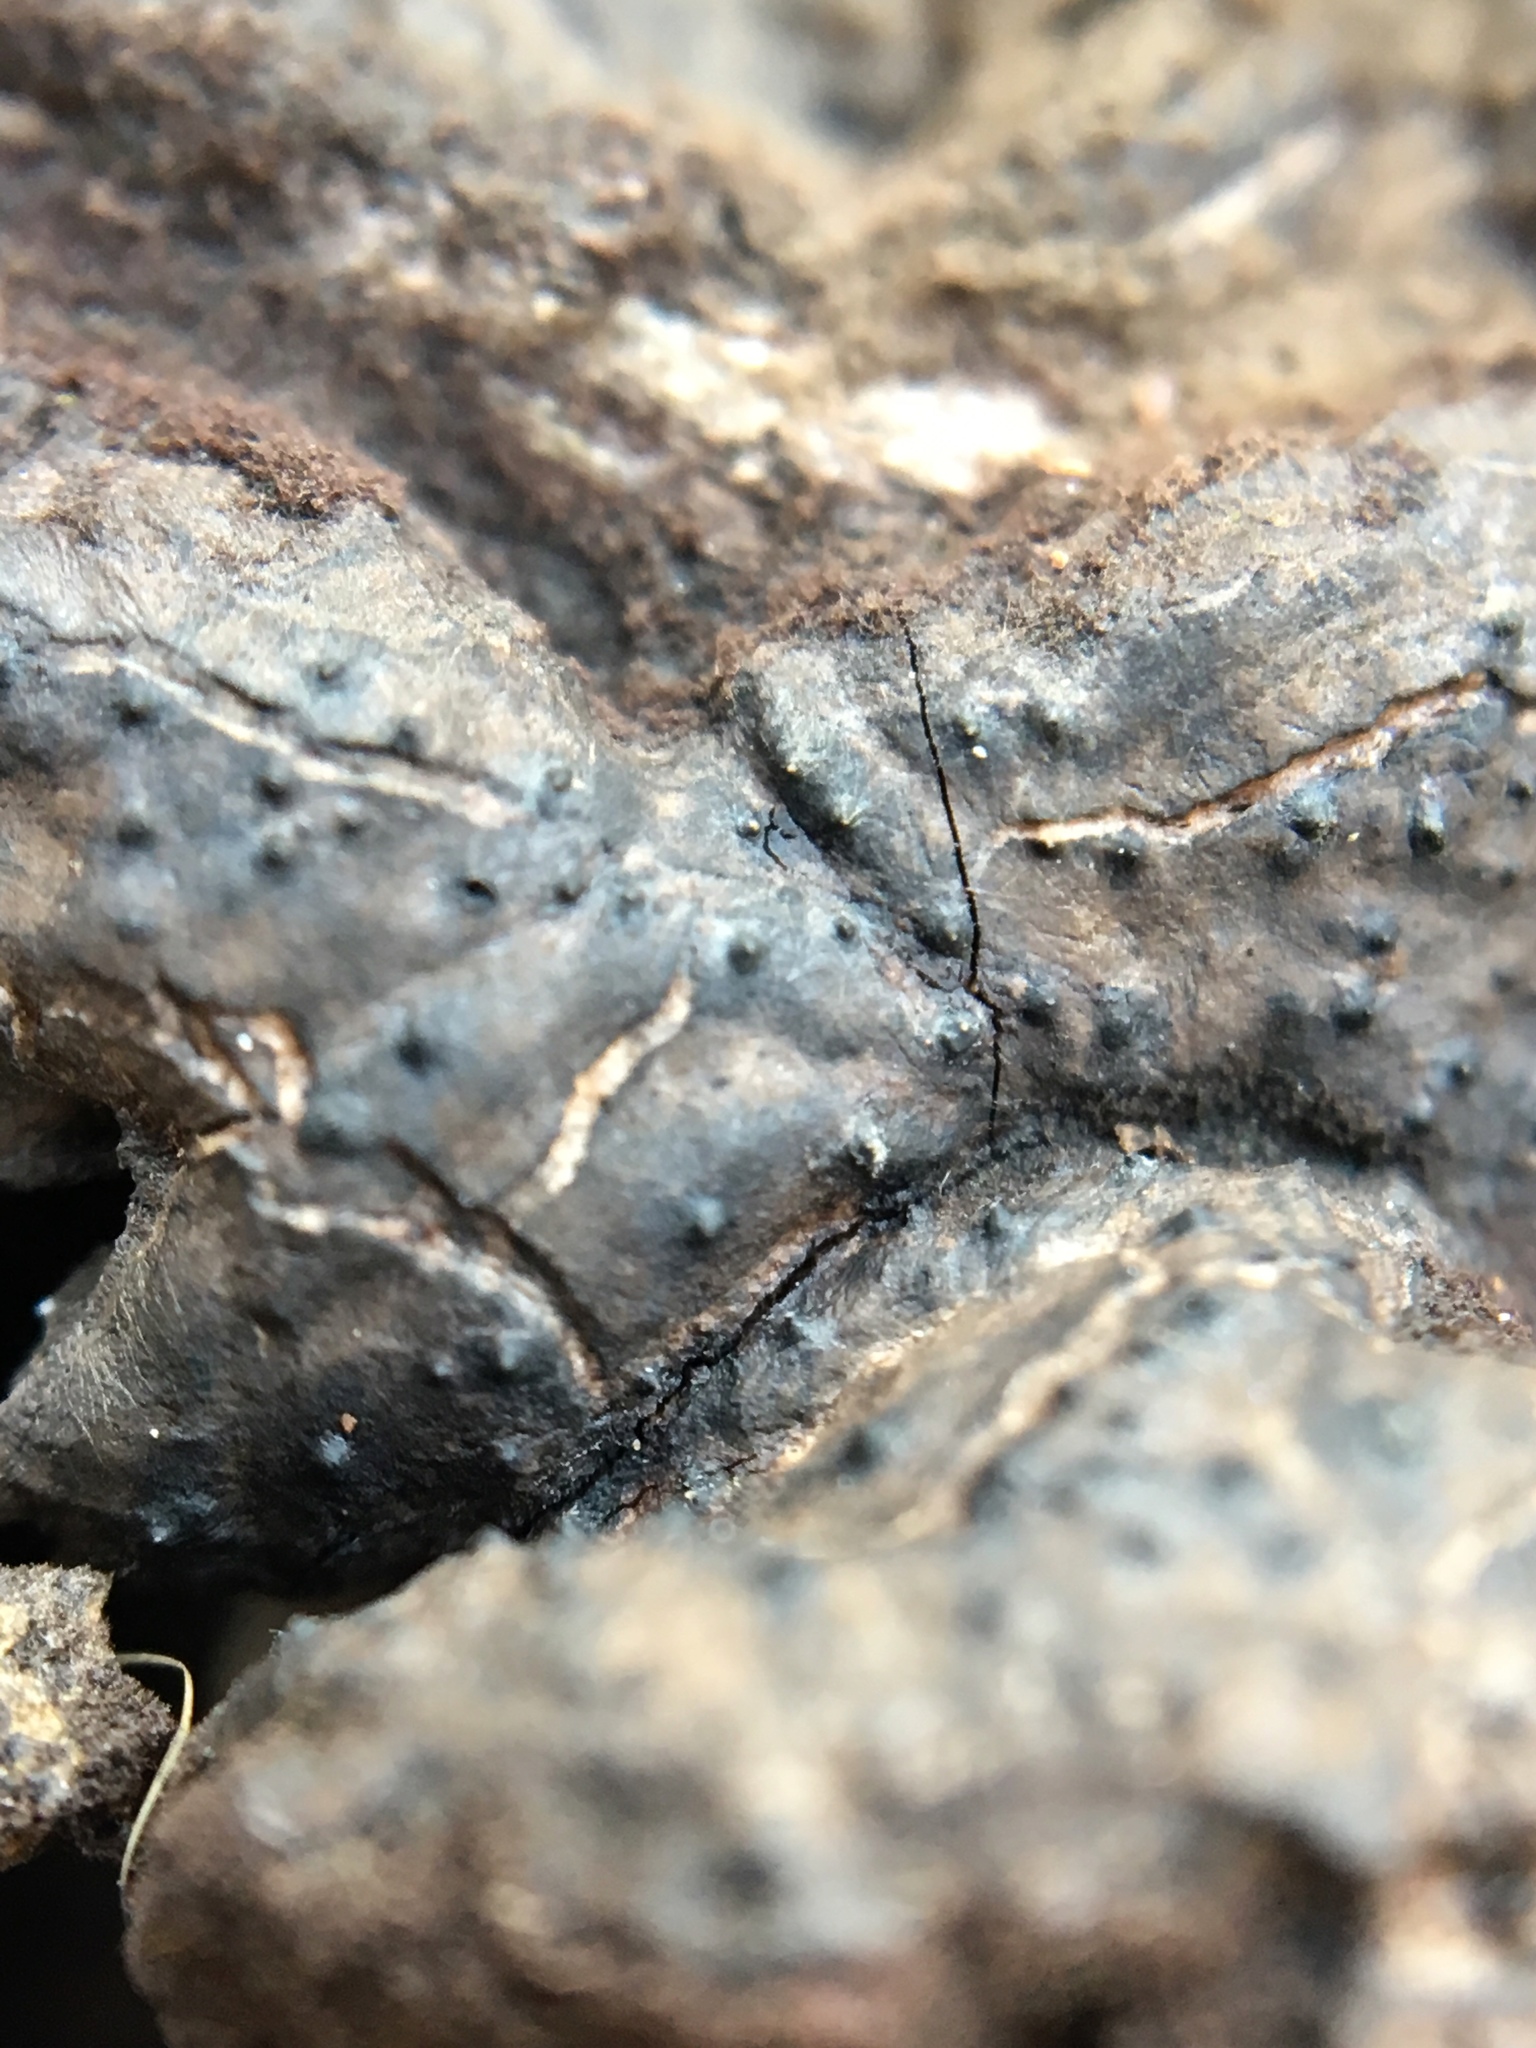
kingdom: Fungi
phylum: Ascomycota
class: Sordariomycetes
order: Xylariales
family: Xylariaceae
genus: Kretzschmaria
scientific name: Kretzschmaria deusta
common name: Brittle cinder
